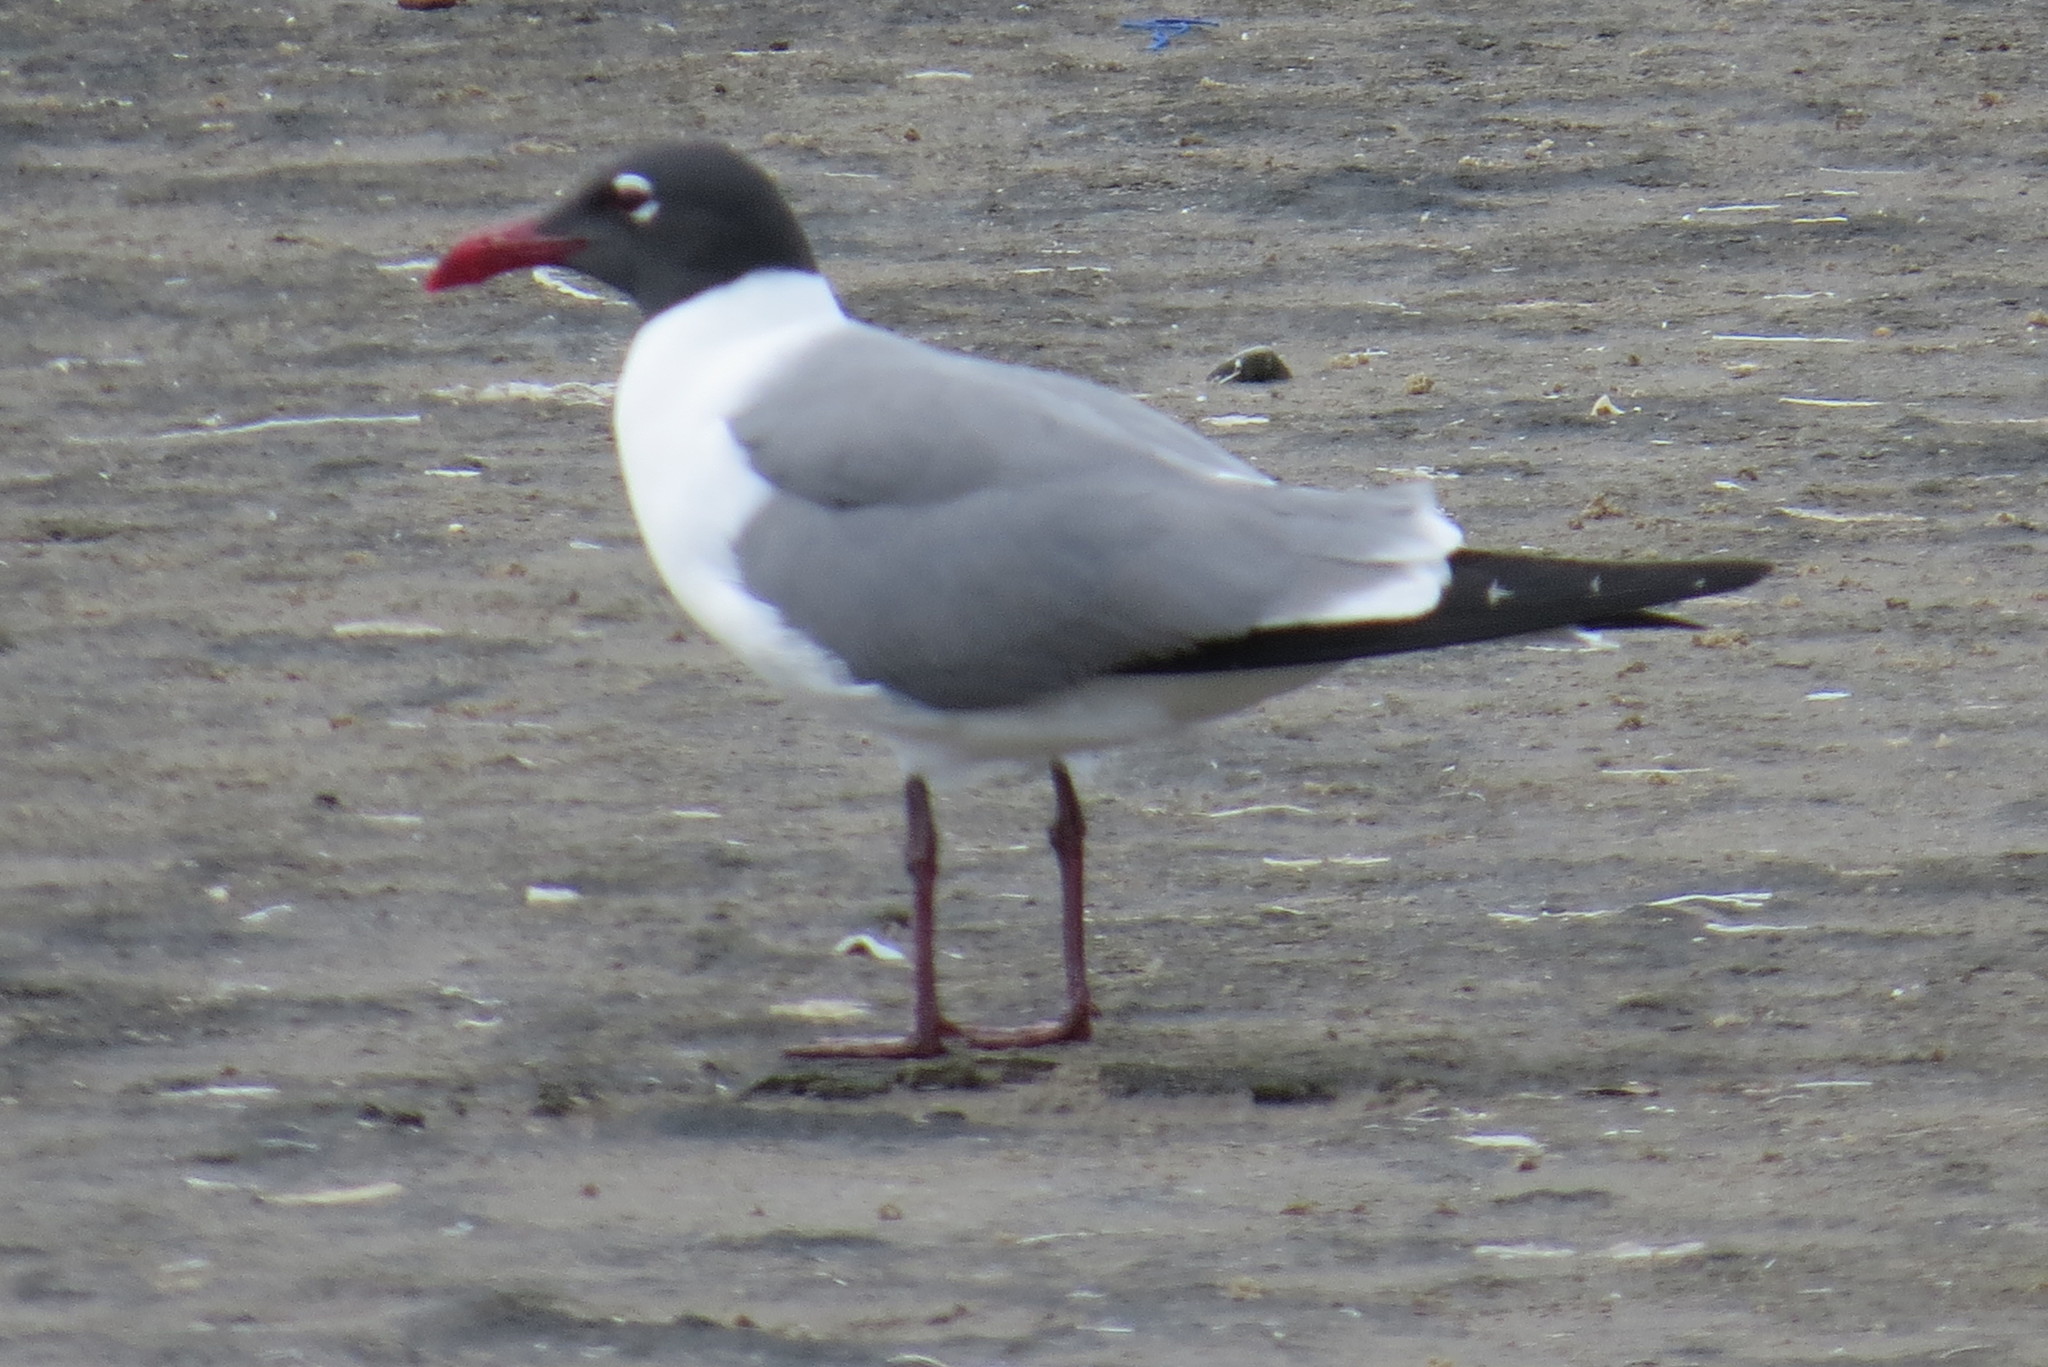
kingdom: Animalia
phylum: Chordata
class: Aves
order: Charadriiformes
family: Laridae
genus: Leucophaeus
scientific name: Leucophaeus atricilla
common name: Laughing gull
